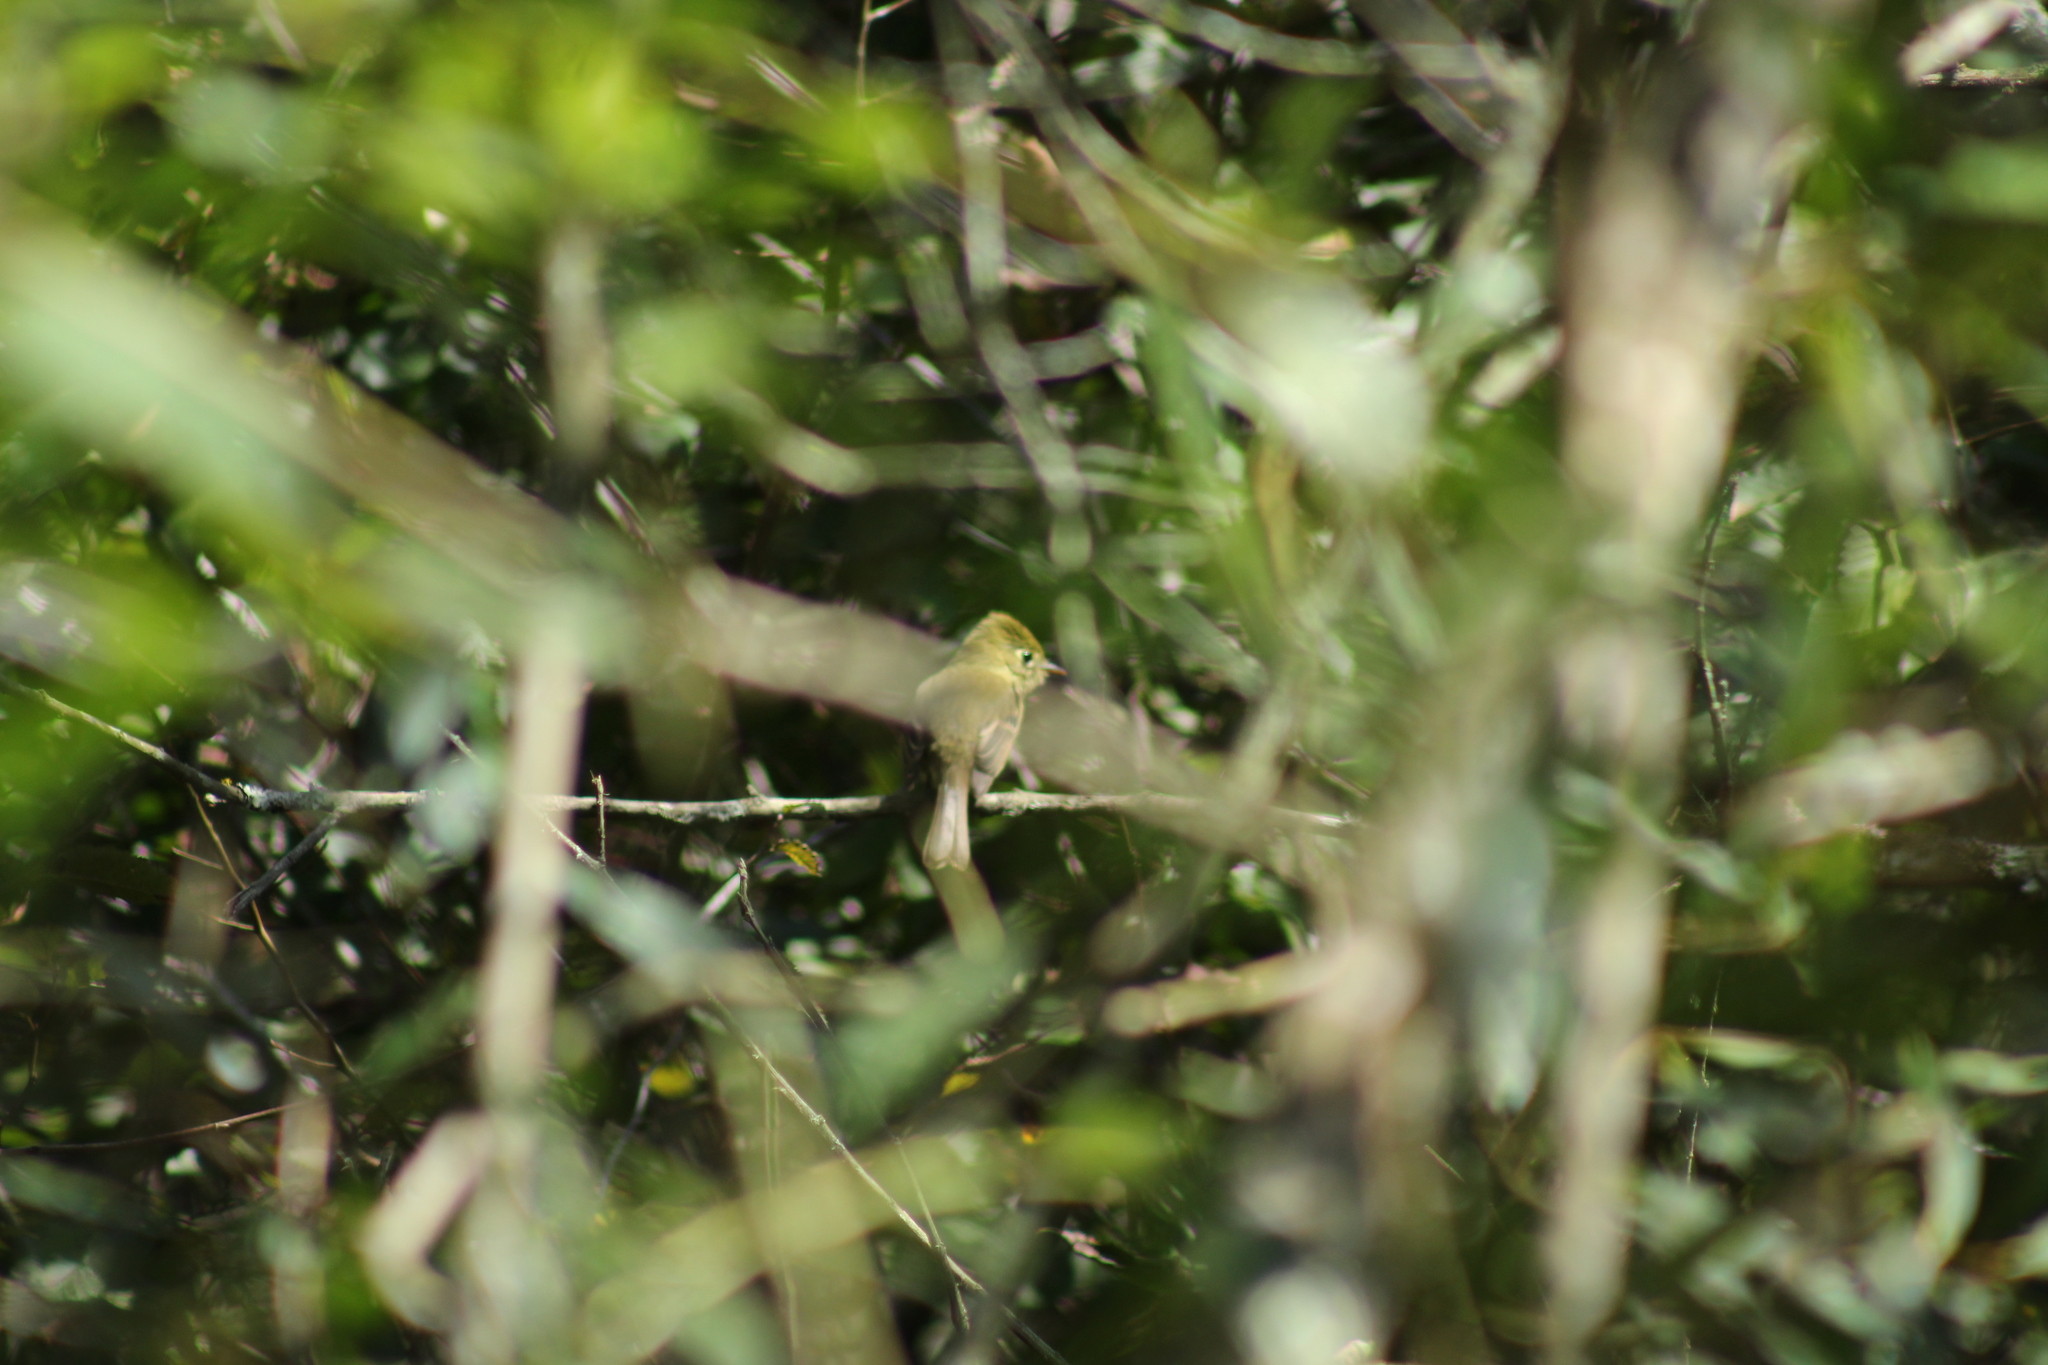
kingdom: Animalia
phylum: Chordata
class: Aves
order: Passeriformes
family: Tyrannidae
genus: Empidonax
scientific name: Empidonax difficilis
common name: Pacific-slope flycatcher
